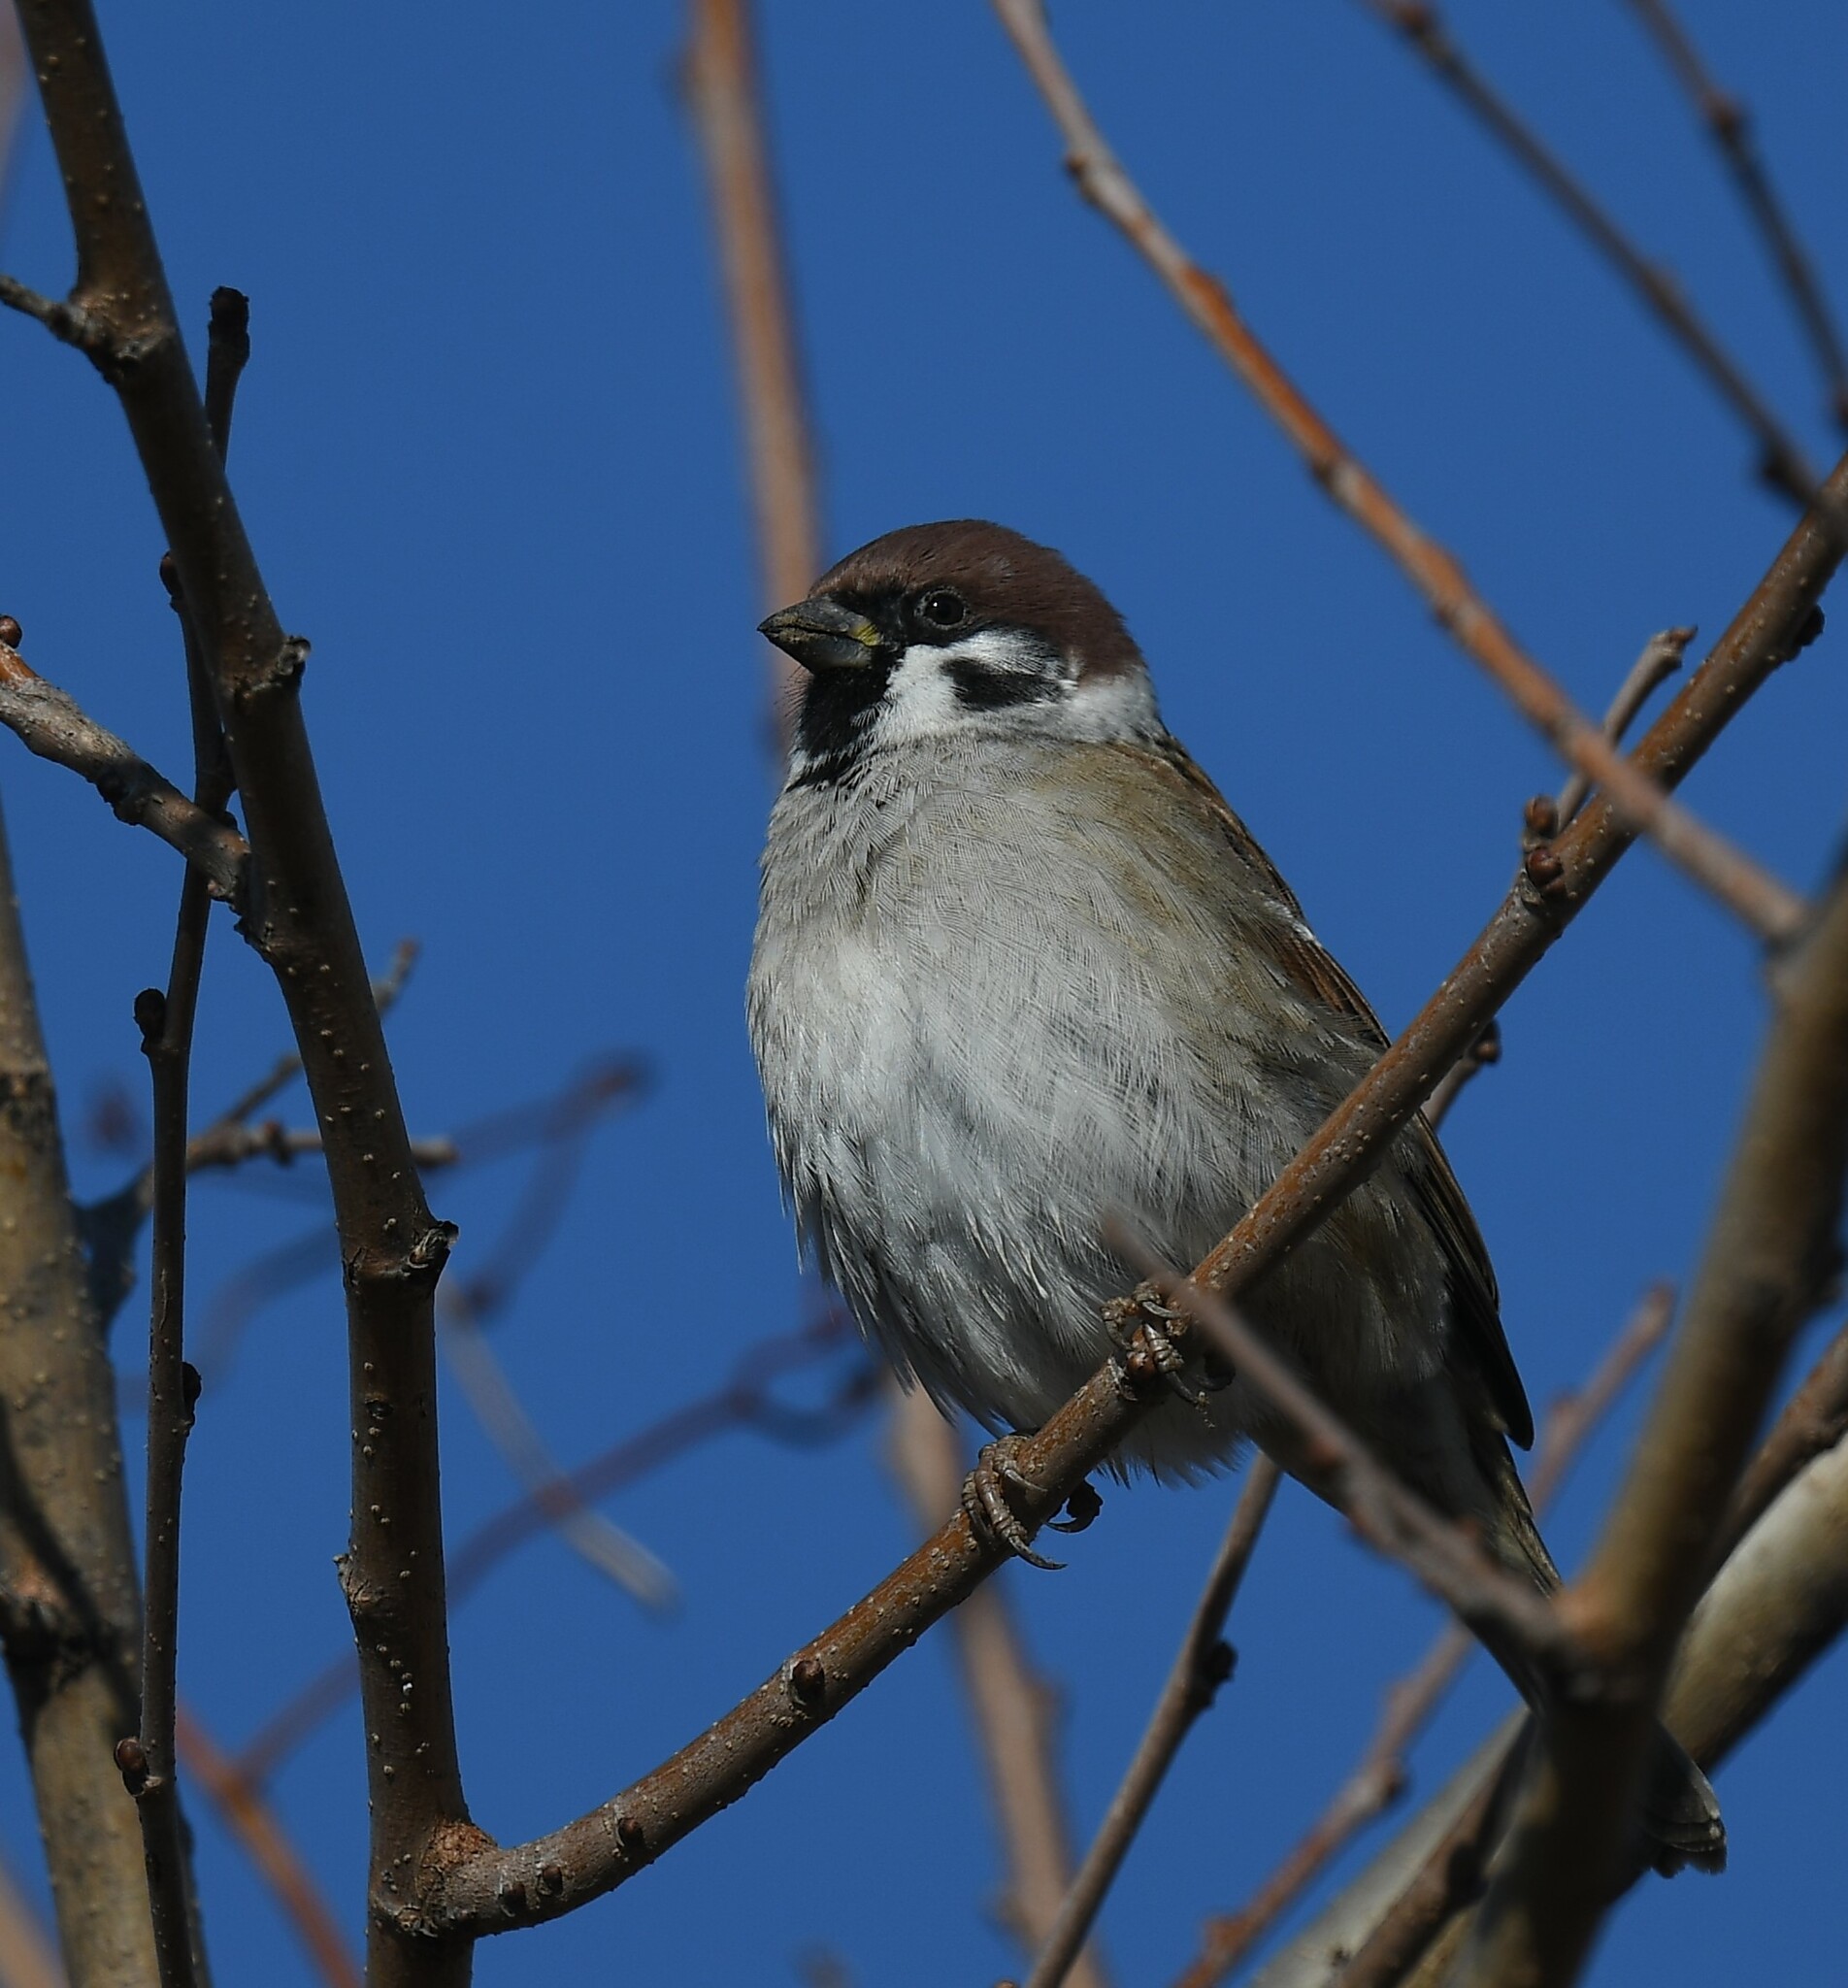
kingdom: Animalia
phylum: Chordata
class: Aves
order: Passeriformes
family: Passeridae
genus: Passer
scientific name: Passer montanus
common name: Eurasian tree sparrow
